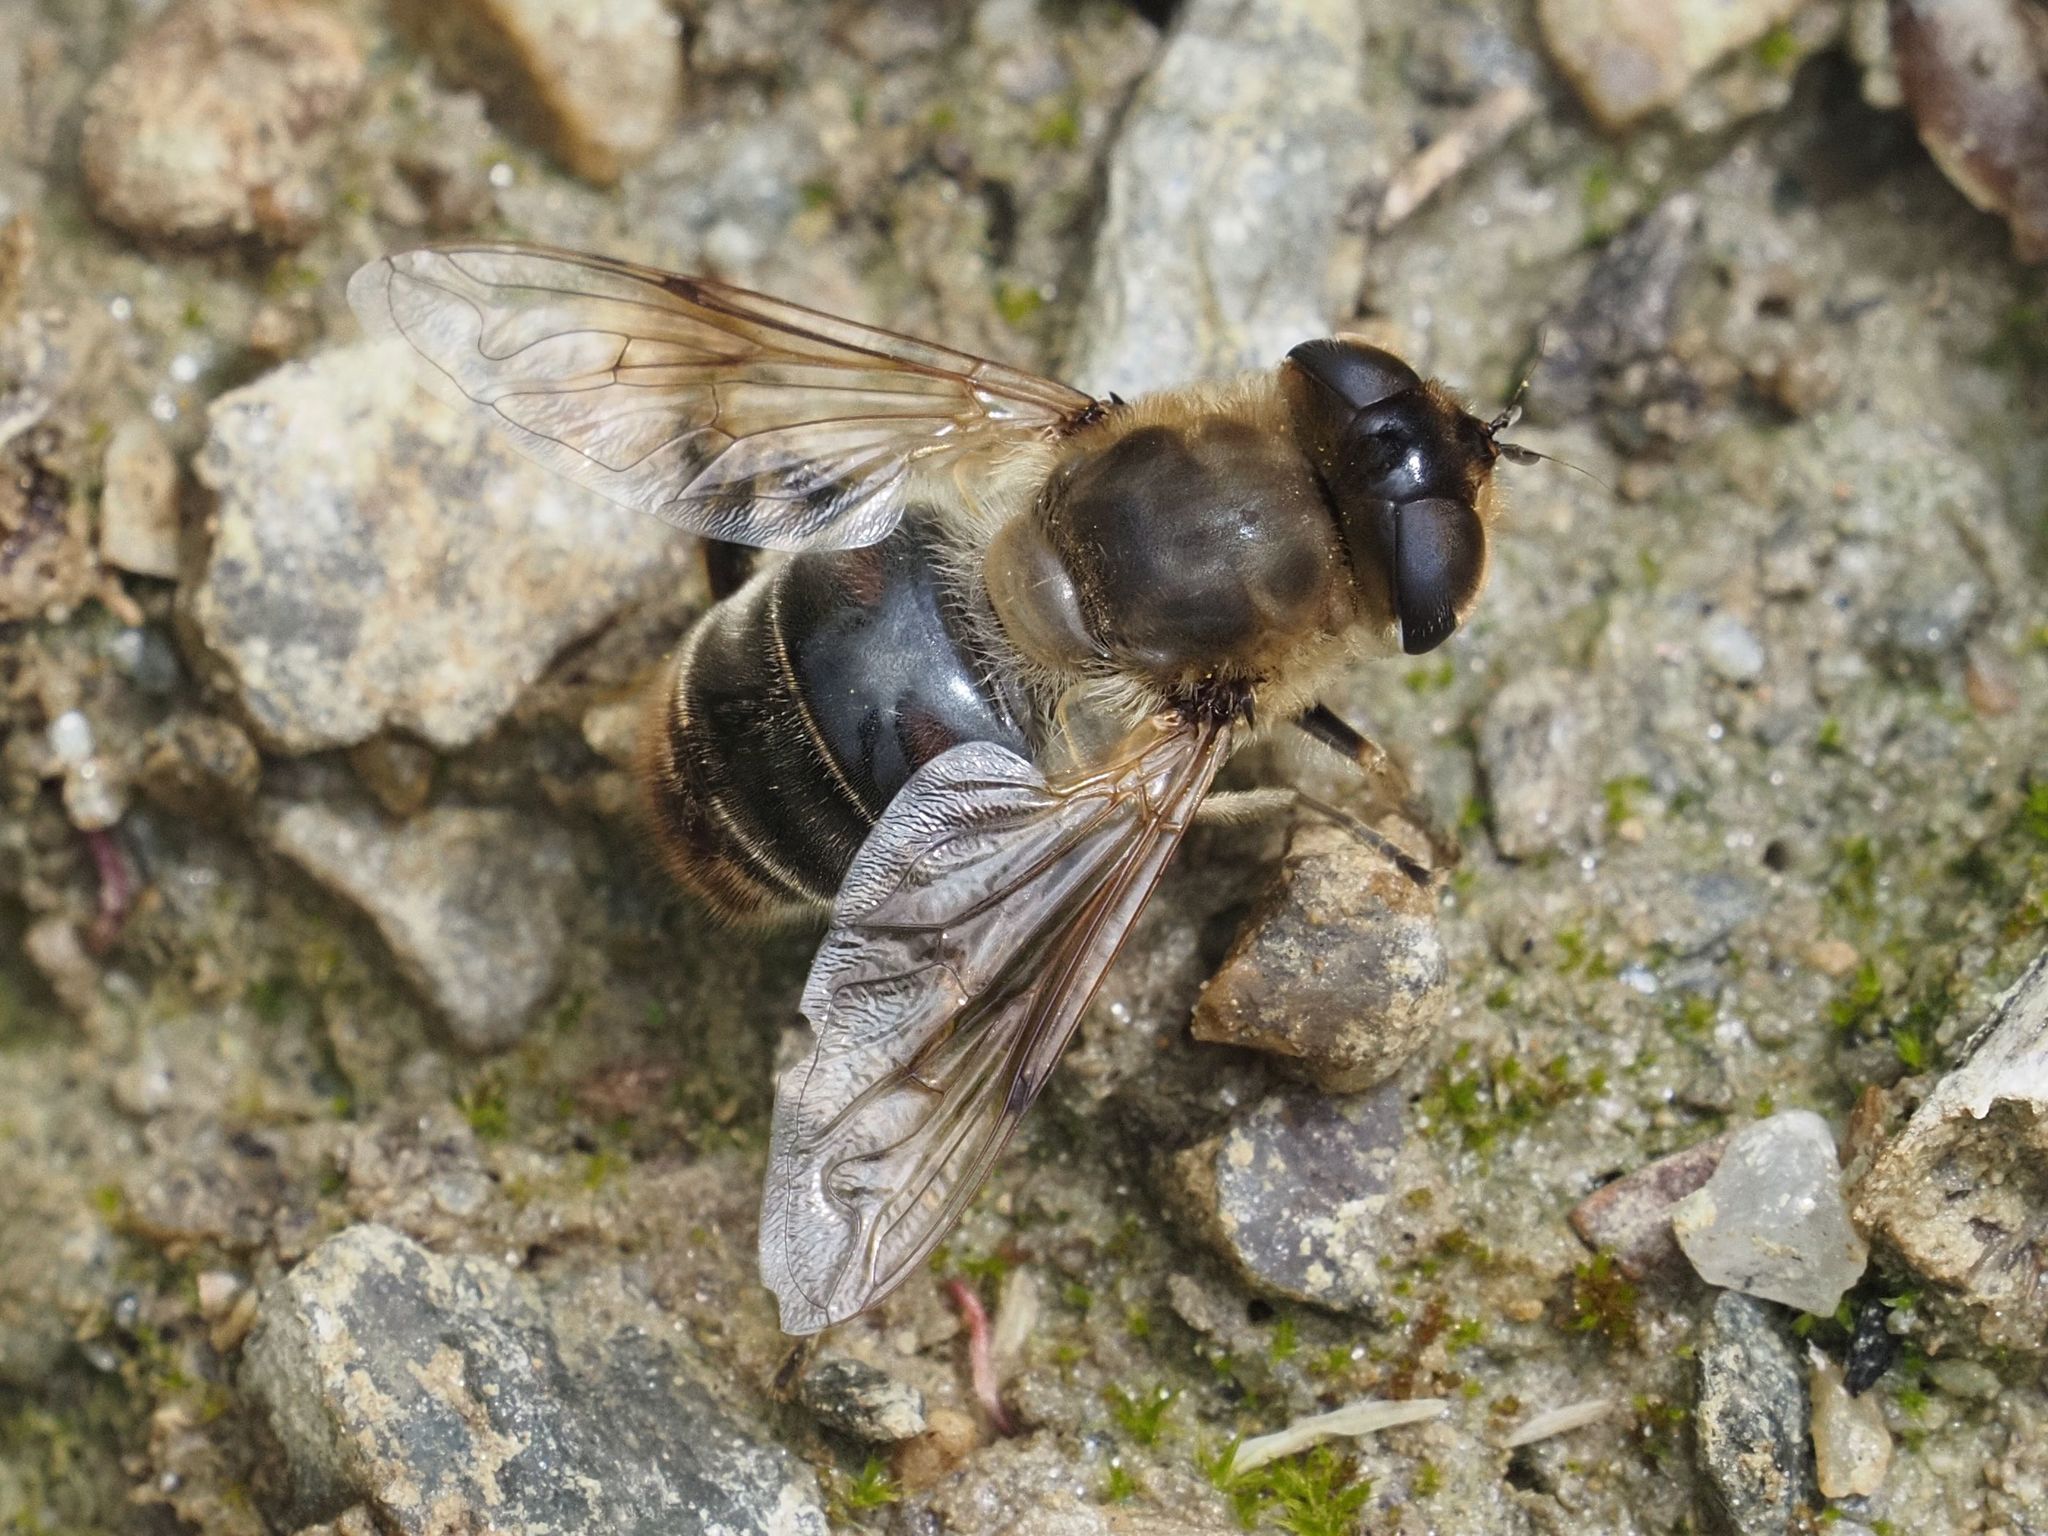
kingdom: Animalia
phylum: Arthropoda
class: Insecta
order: Diptera
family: Syrphidae
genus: Eristalis
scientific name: Eristalis tenax
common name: Drone fly
